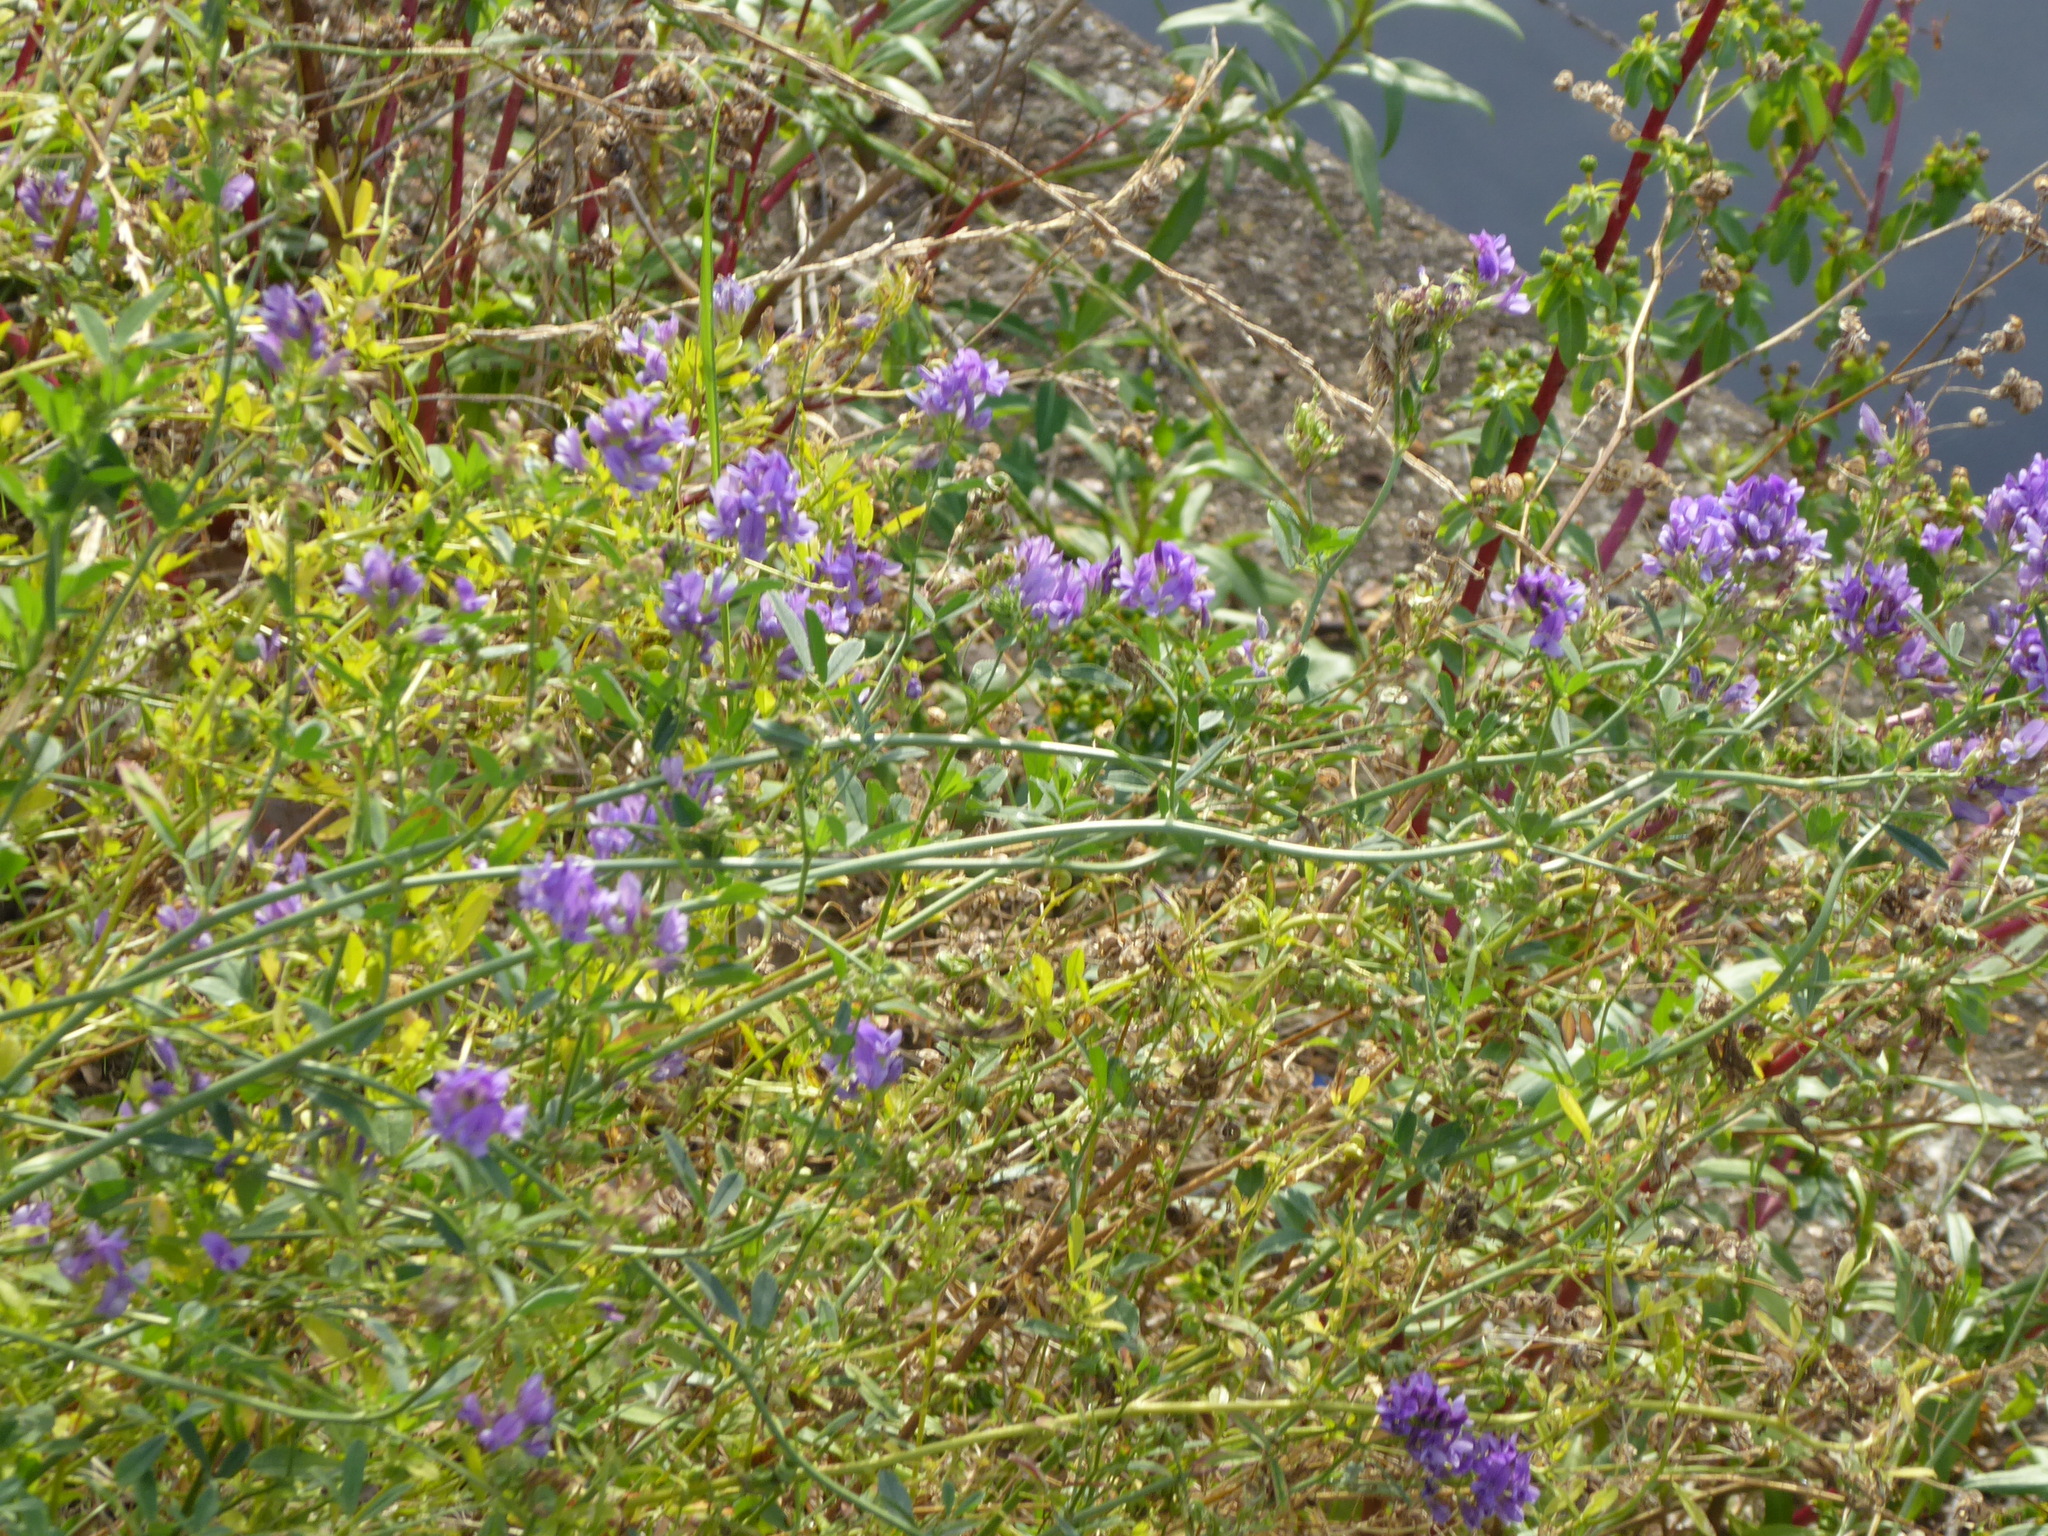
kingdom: Plantae
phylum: Tracheophyta
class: Magnoliopsida
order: Fabales
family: Fabaceae
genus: Medicago
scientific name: Medicago sativa
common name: Alfalfa
